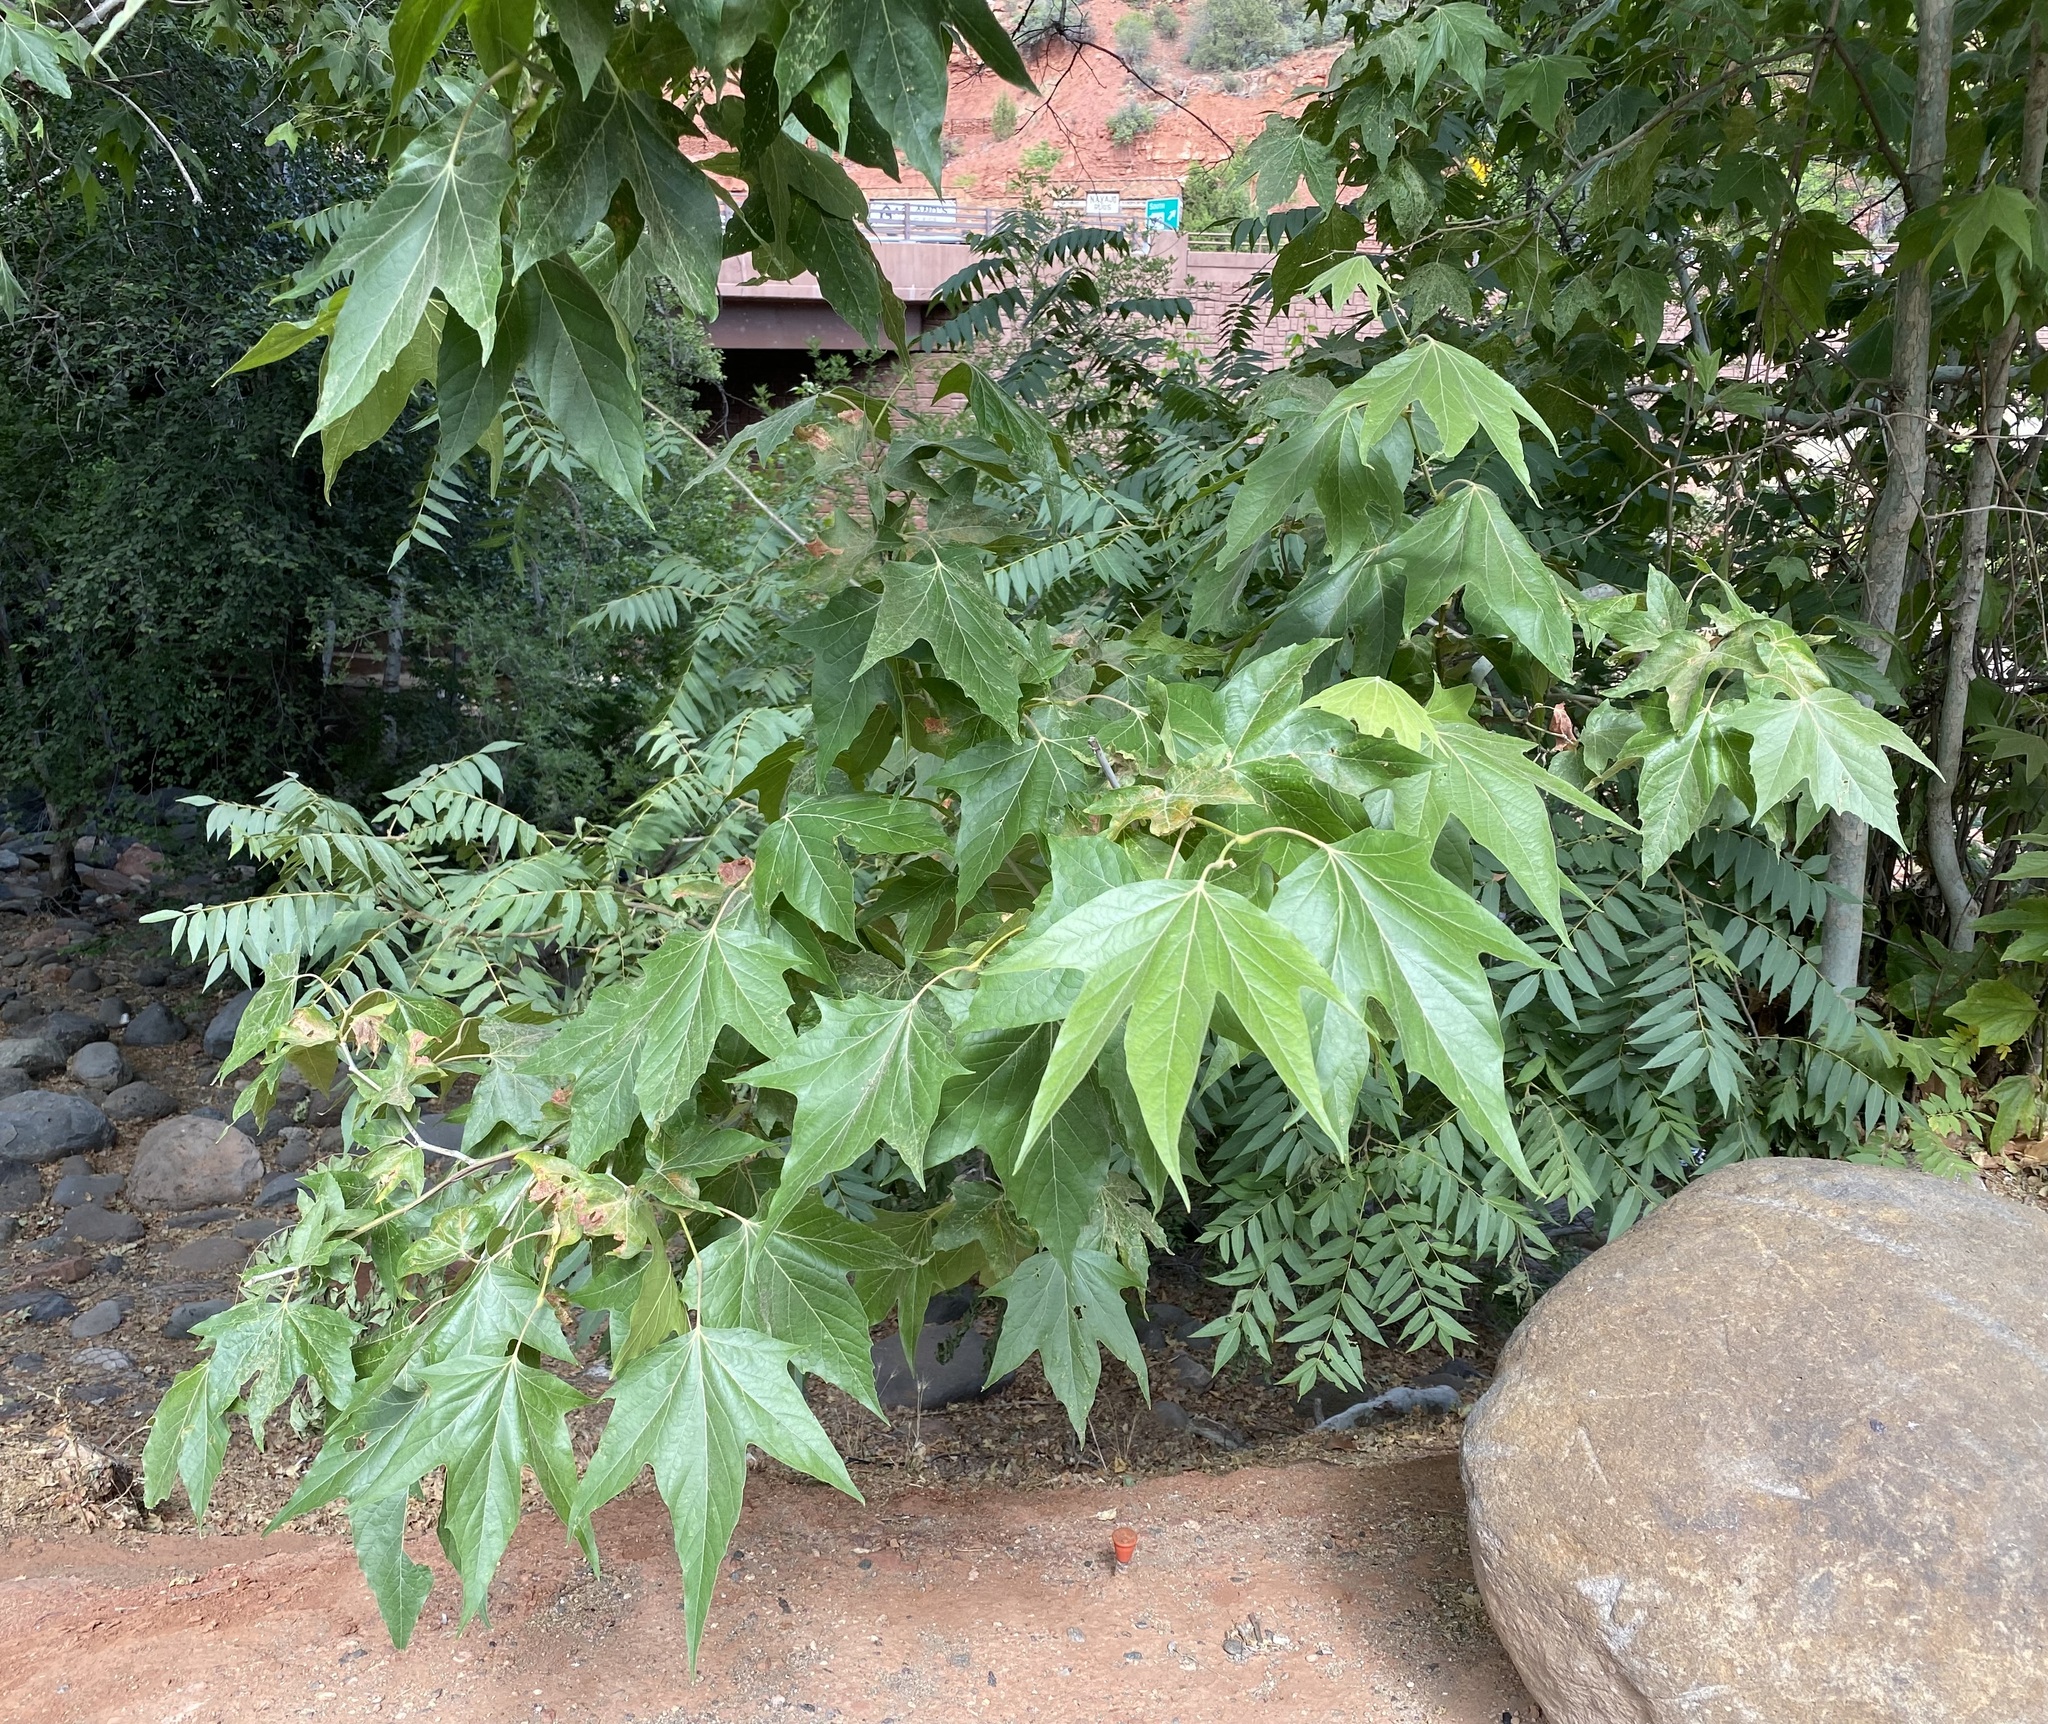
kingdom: Plantae
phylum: Tracheophyta
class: Magnoliopsida
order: Proteales
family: Platanaceae
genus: Platanus
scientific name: Platanus wrightii
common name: Arizona sycamore
